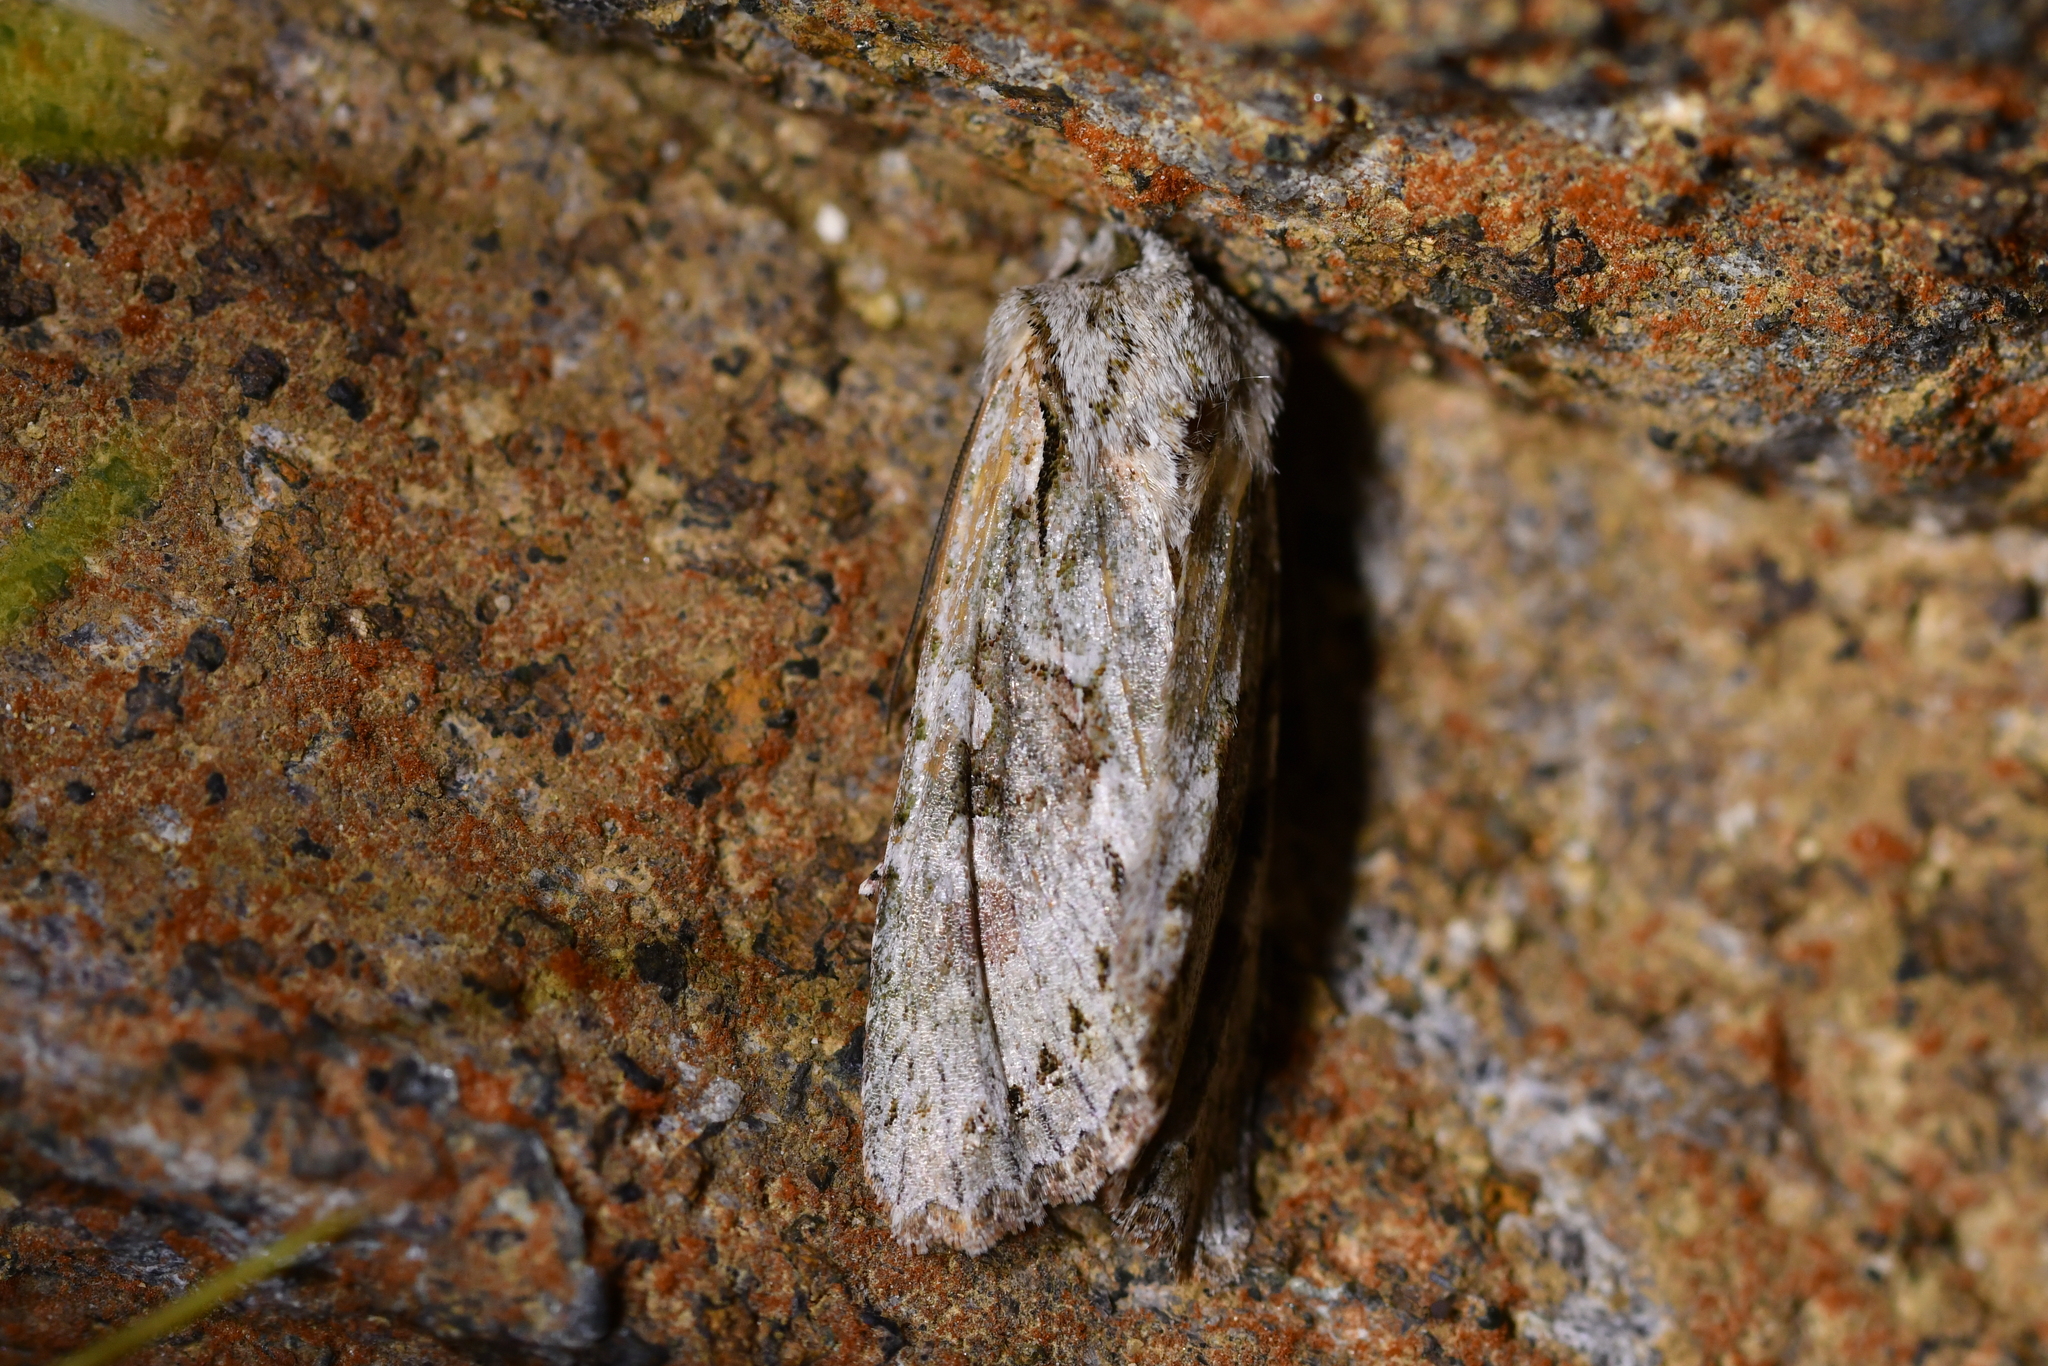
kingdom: Animalia
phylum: Arthropoda
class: Insecta
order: Lepidoptera
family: Noctuidae
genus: Ichneutica
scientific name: Ichneutica mutans
